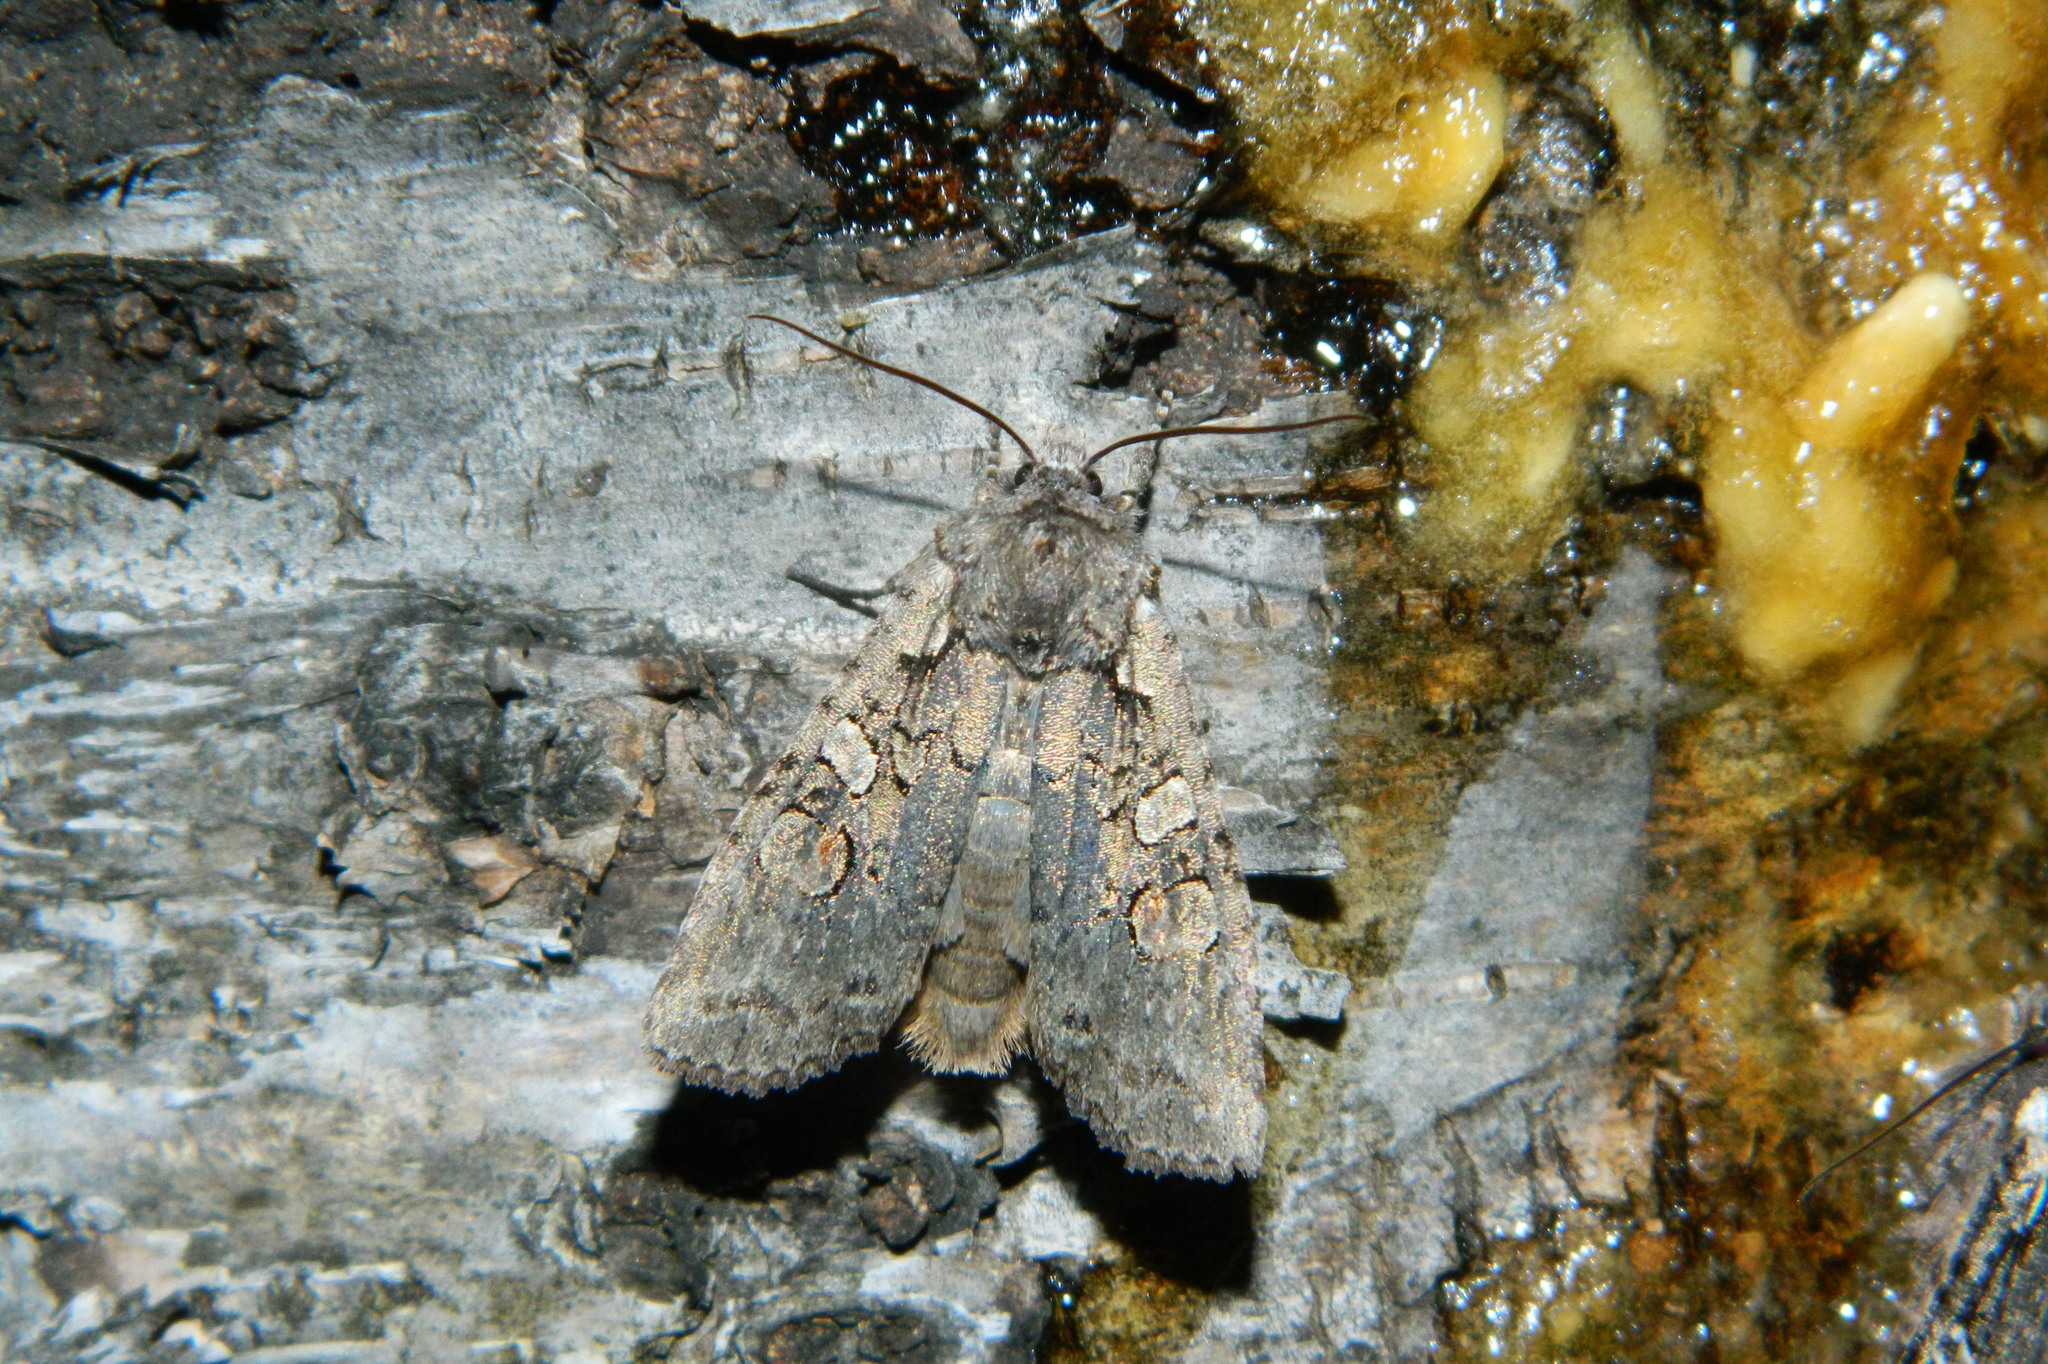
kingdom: Animalia
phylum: Arthropoda
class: Insecta
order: Lepidoptera
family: Noctuidae
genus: Lithophane
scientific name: Lithophane baileyi
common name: Bailey's pinion moth
